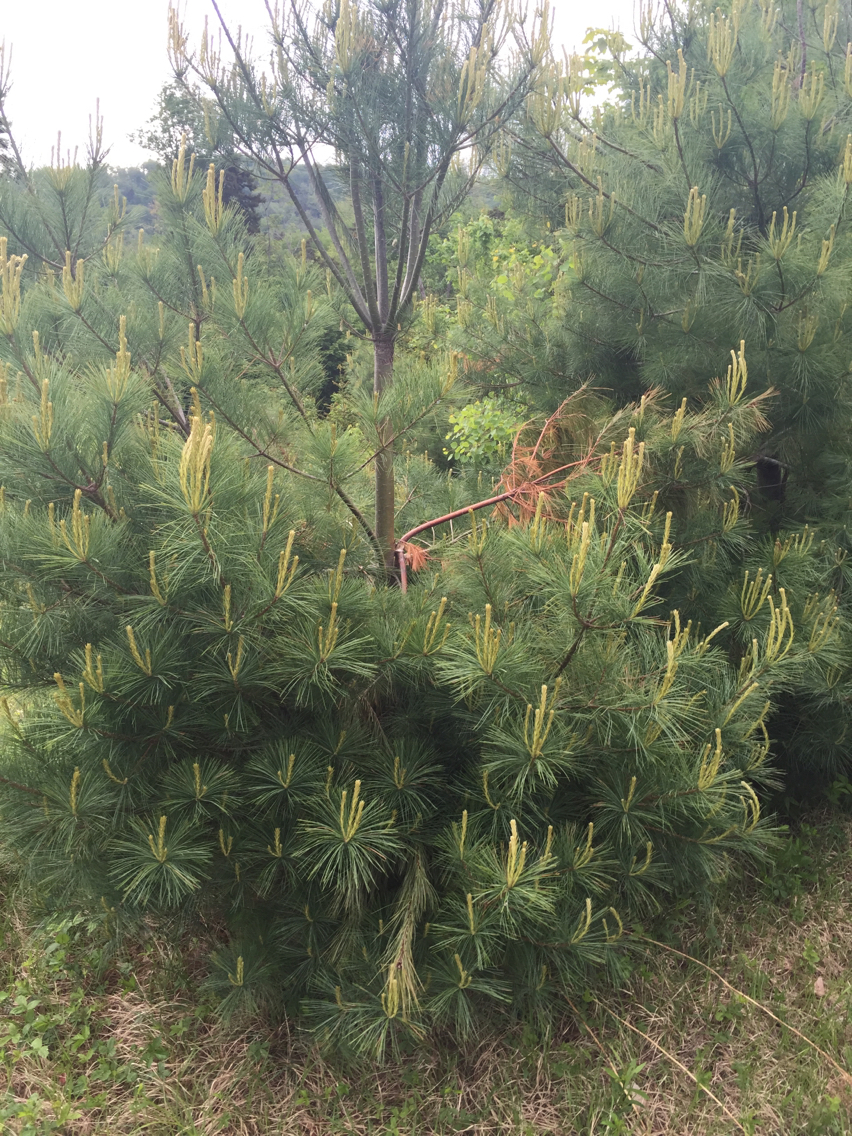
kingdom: Plantae
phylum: Tracheophyta
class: Pinopsida
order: Pinales
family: Pinaceae
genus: Pinus
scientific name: Pinus strobus
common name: Weymouth pine
